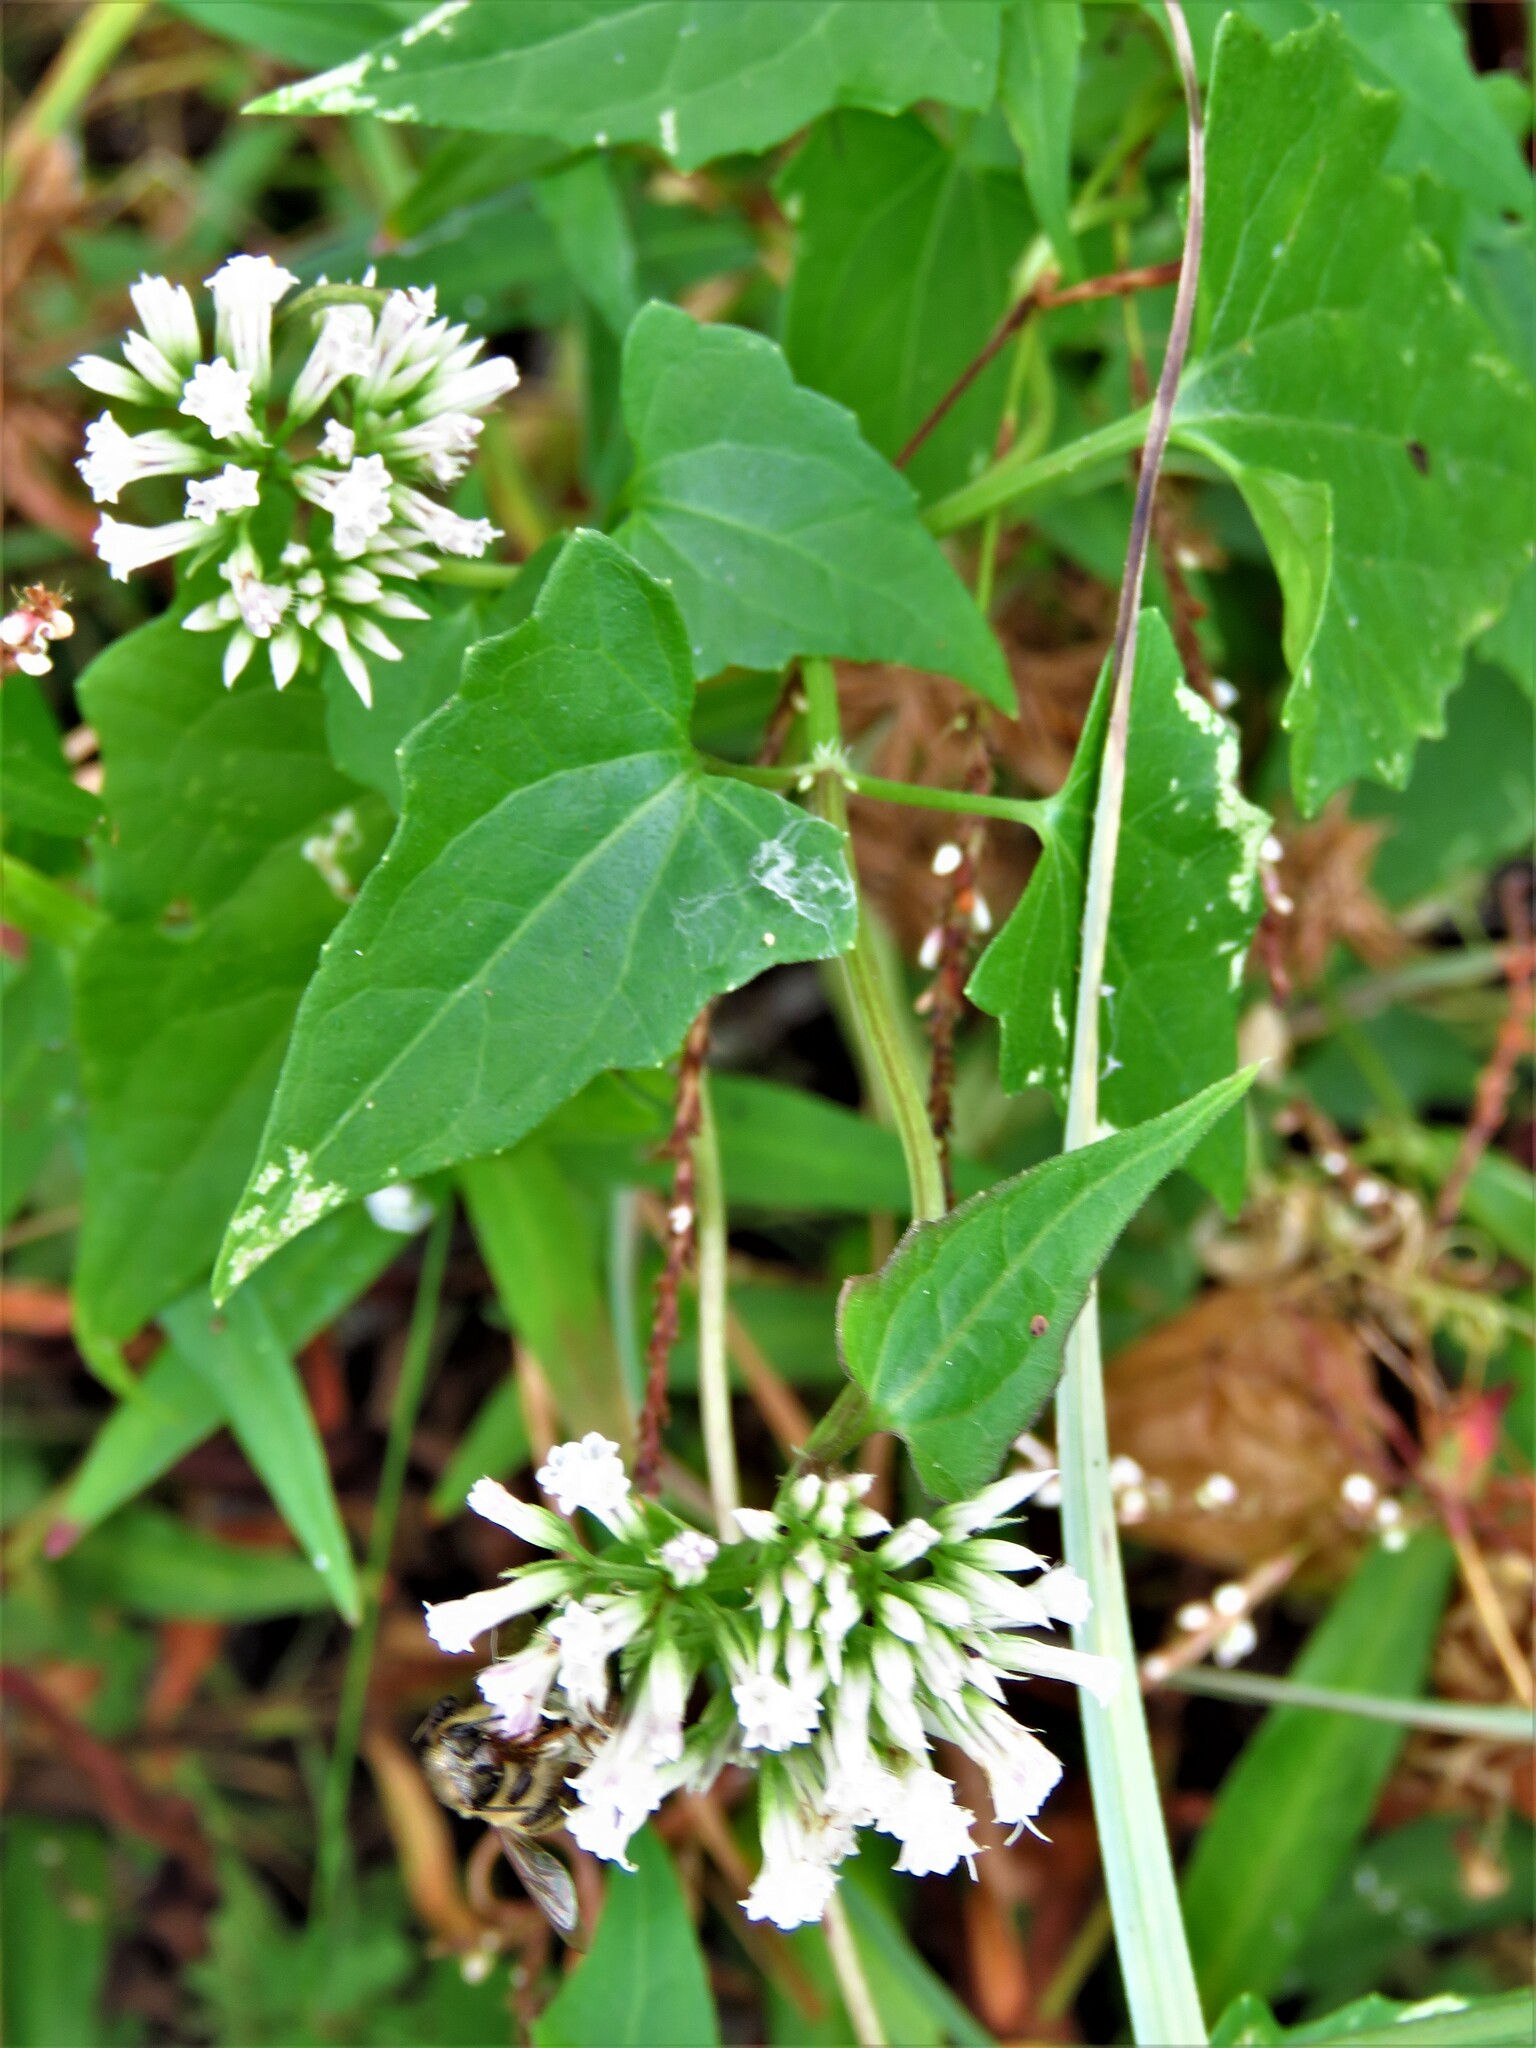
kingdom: Plantae
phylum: Tracheophyta
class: Magnoliopsida
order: Asterales
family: Asteraceae
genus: Mikania
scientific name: Mikania scandens
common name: Climbing hempvine
